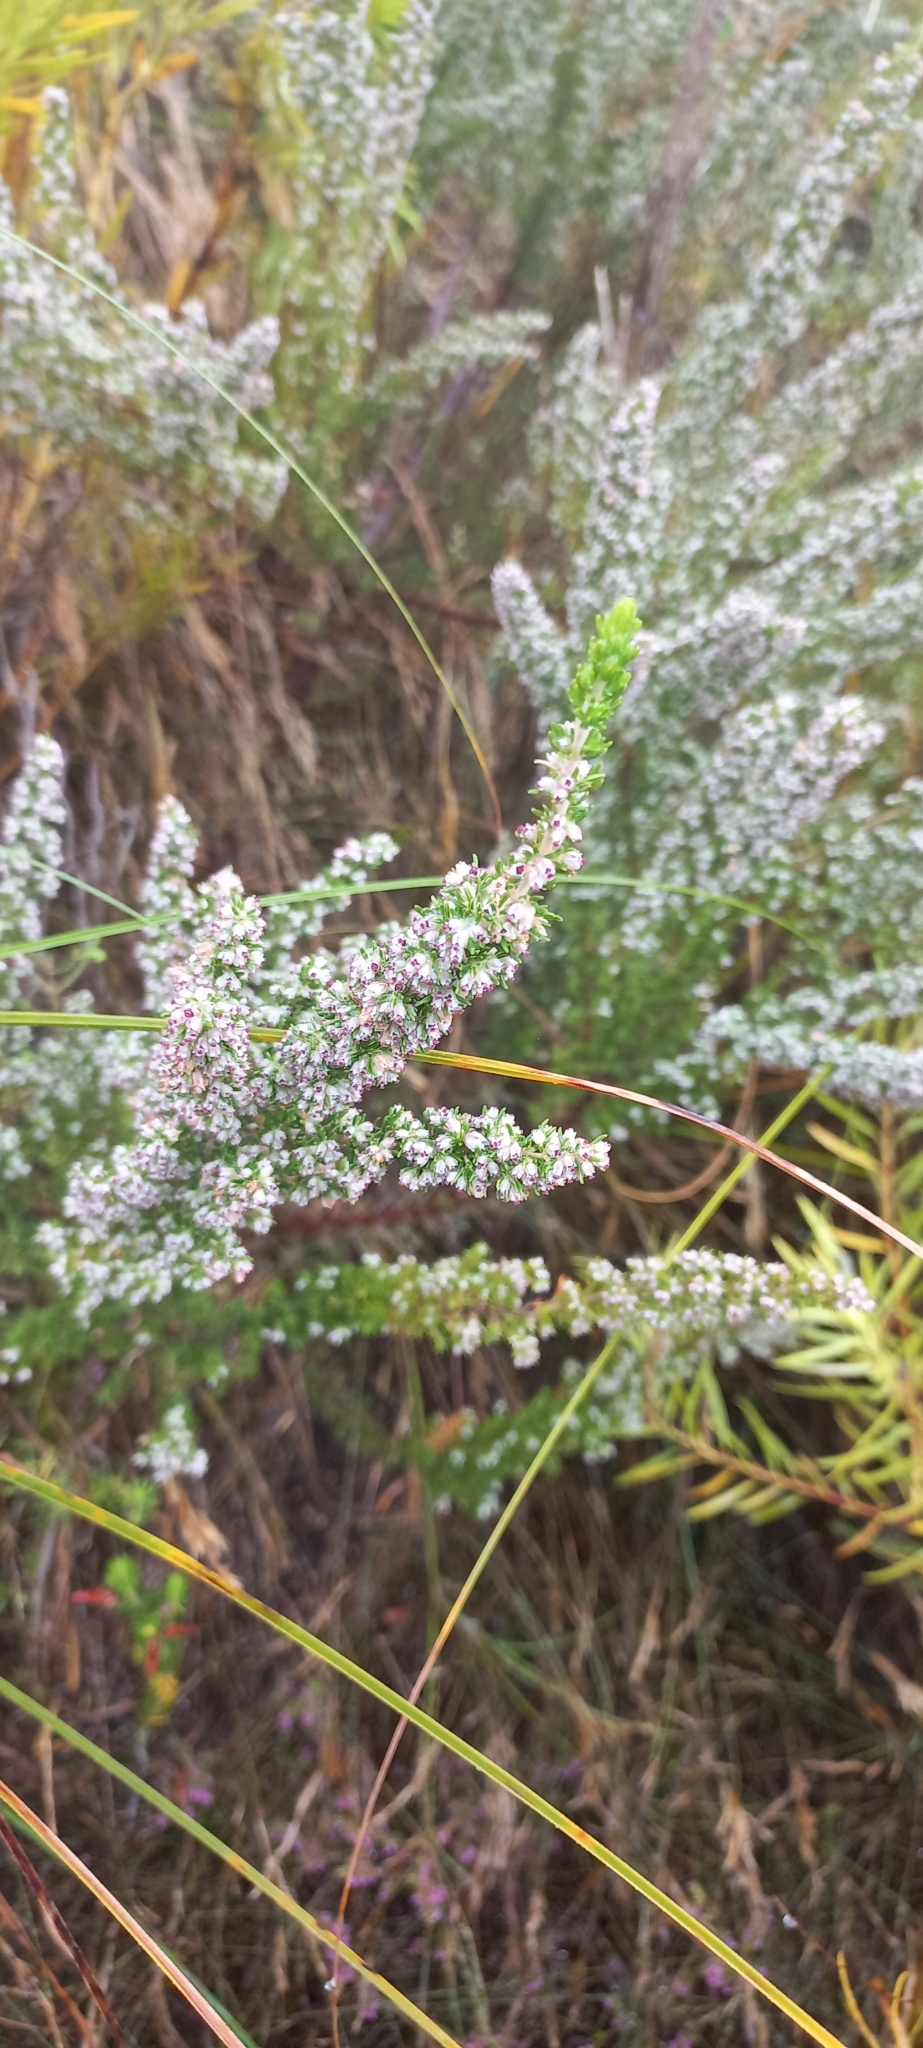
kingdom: Plantae
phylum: Tracheophyta
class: Magnoliopsida
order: Ericales
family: Ericaceae
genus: Erica
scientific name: Erica hispidula
